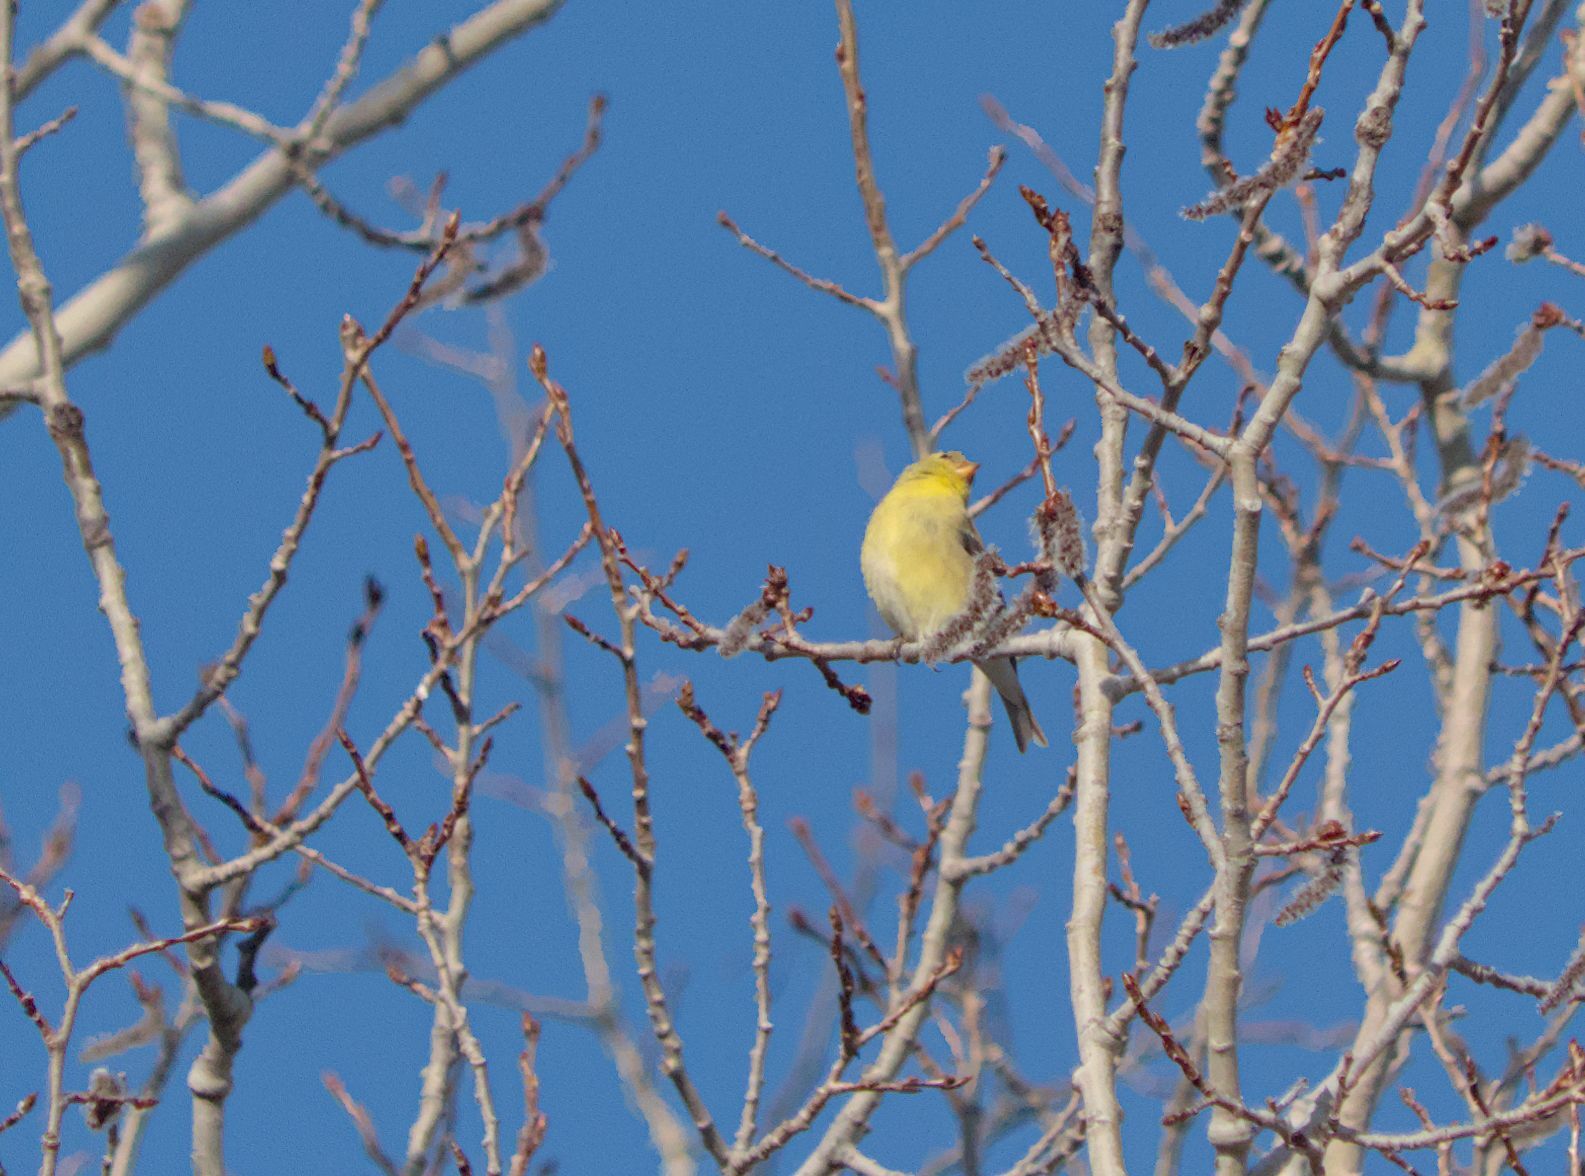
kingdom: Animalia
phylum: Chordata
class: Aves
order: Passeriformes
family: Fringillidae
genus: Spinus
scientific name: Spinus tristis
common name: American goldfinch
